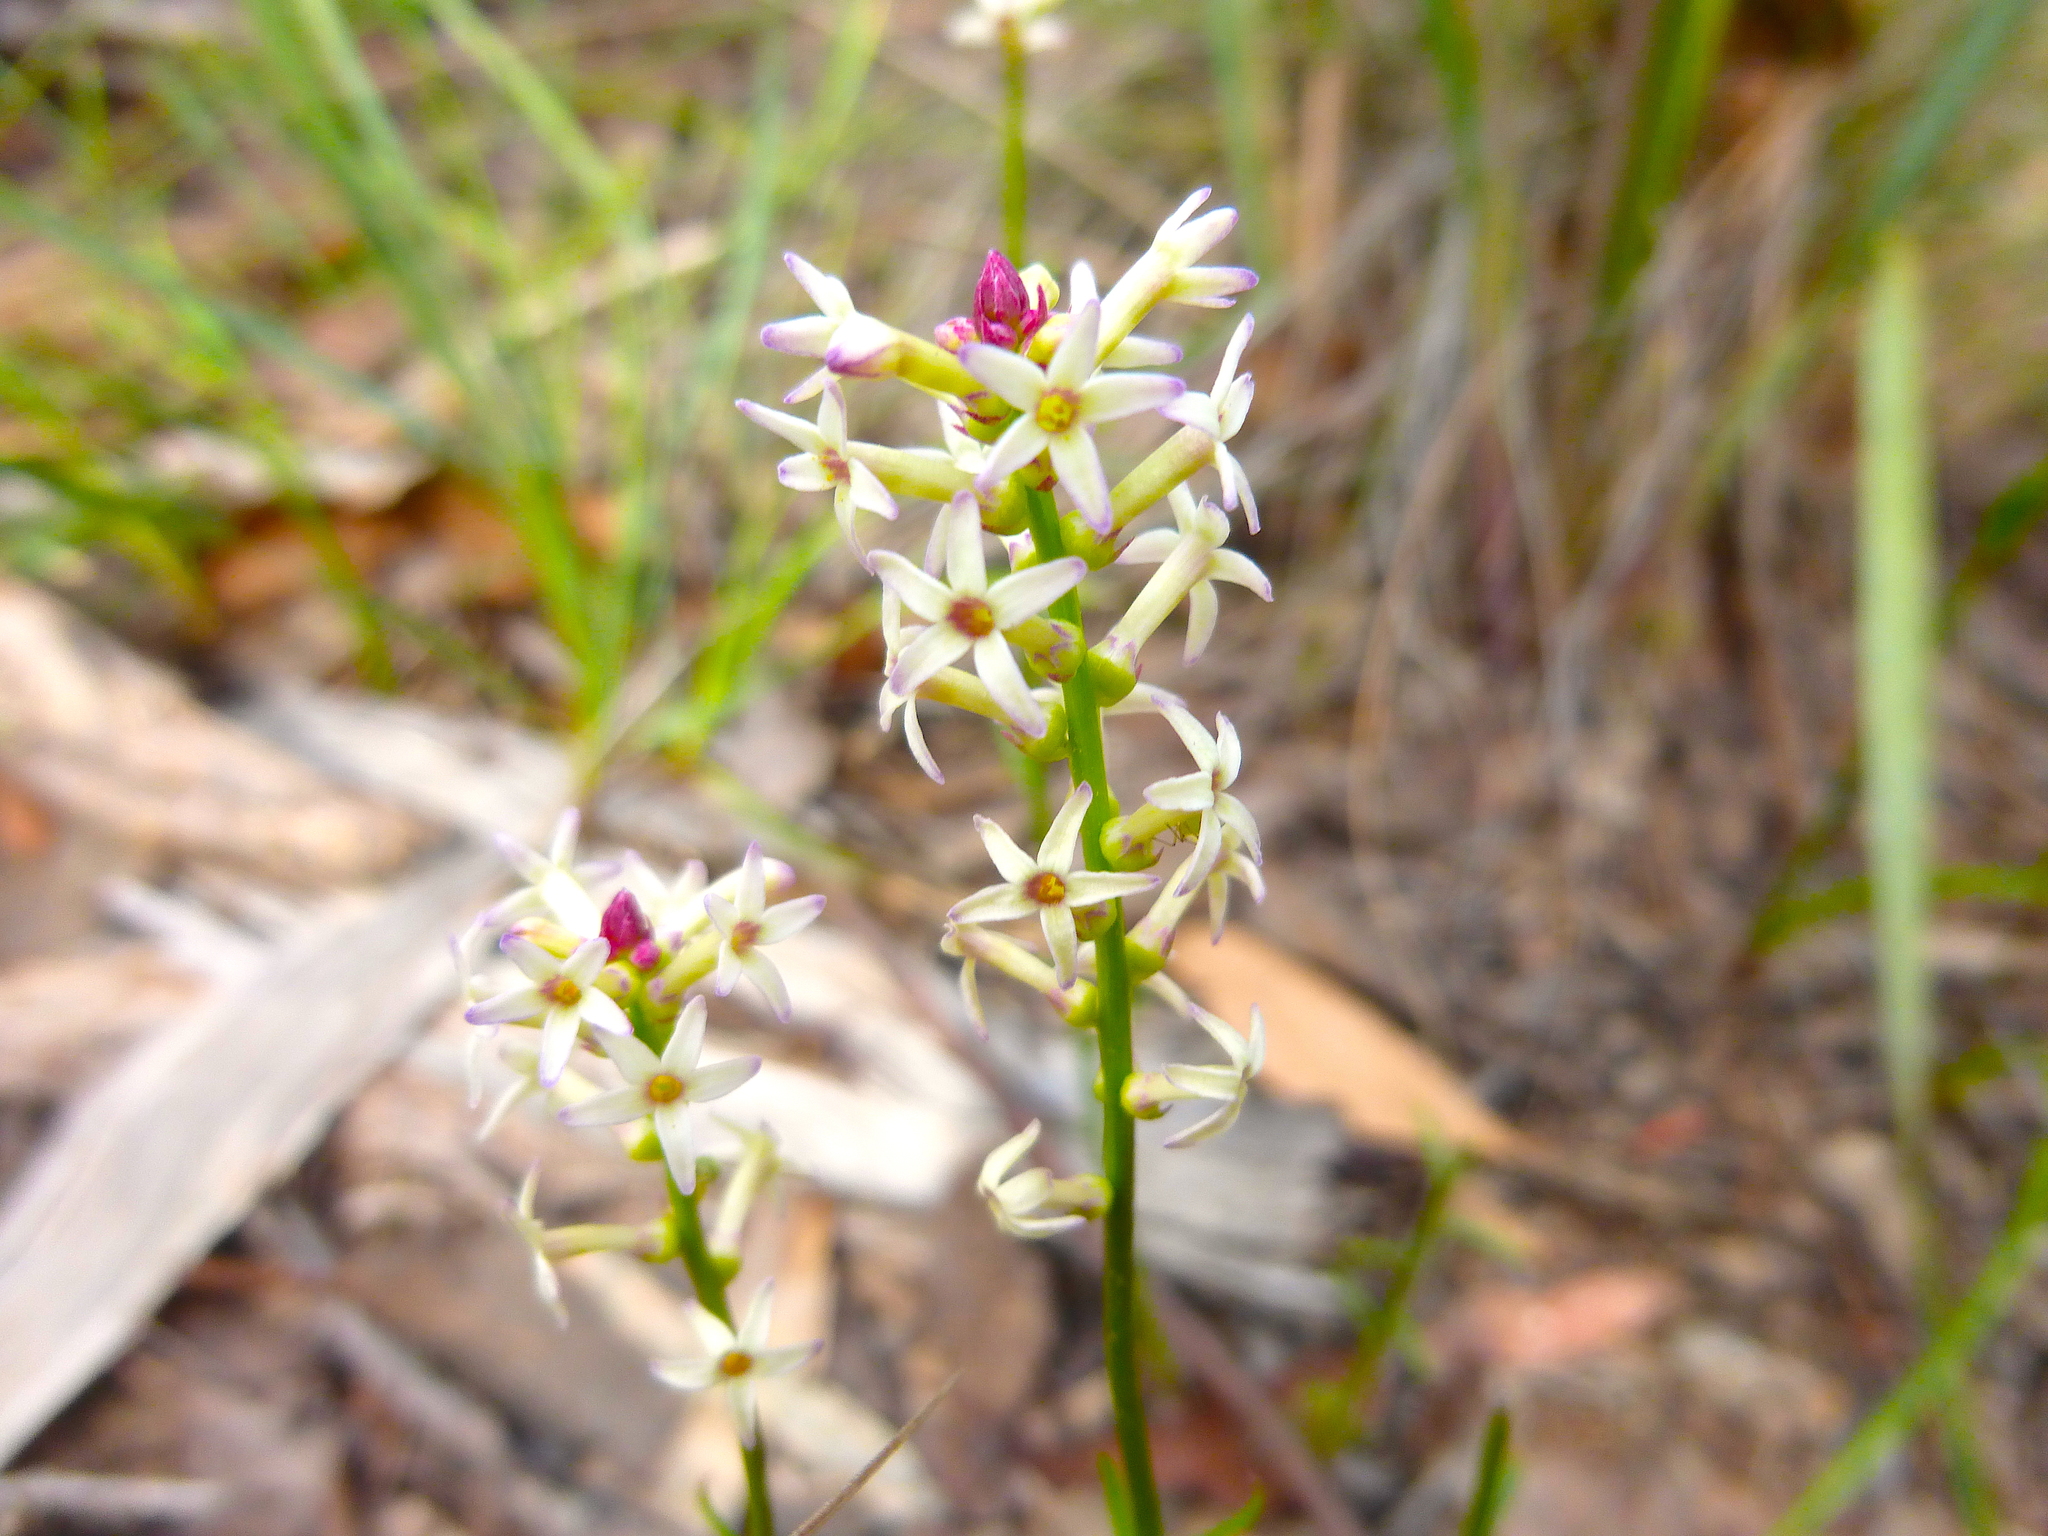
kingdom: Plantae
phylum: Tracheophyta
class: Magnoliopsida
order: Celastrales
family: Celastraceae
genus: Stackhousia
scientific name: Stackhousia monogyna
